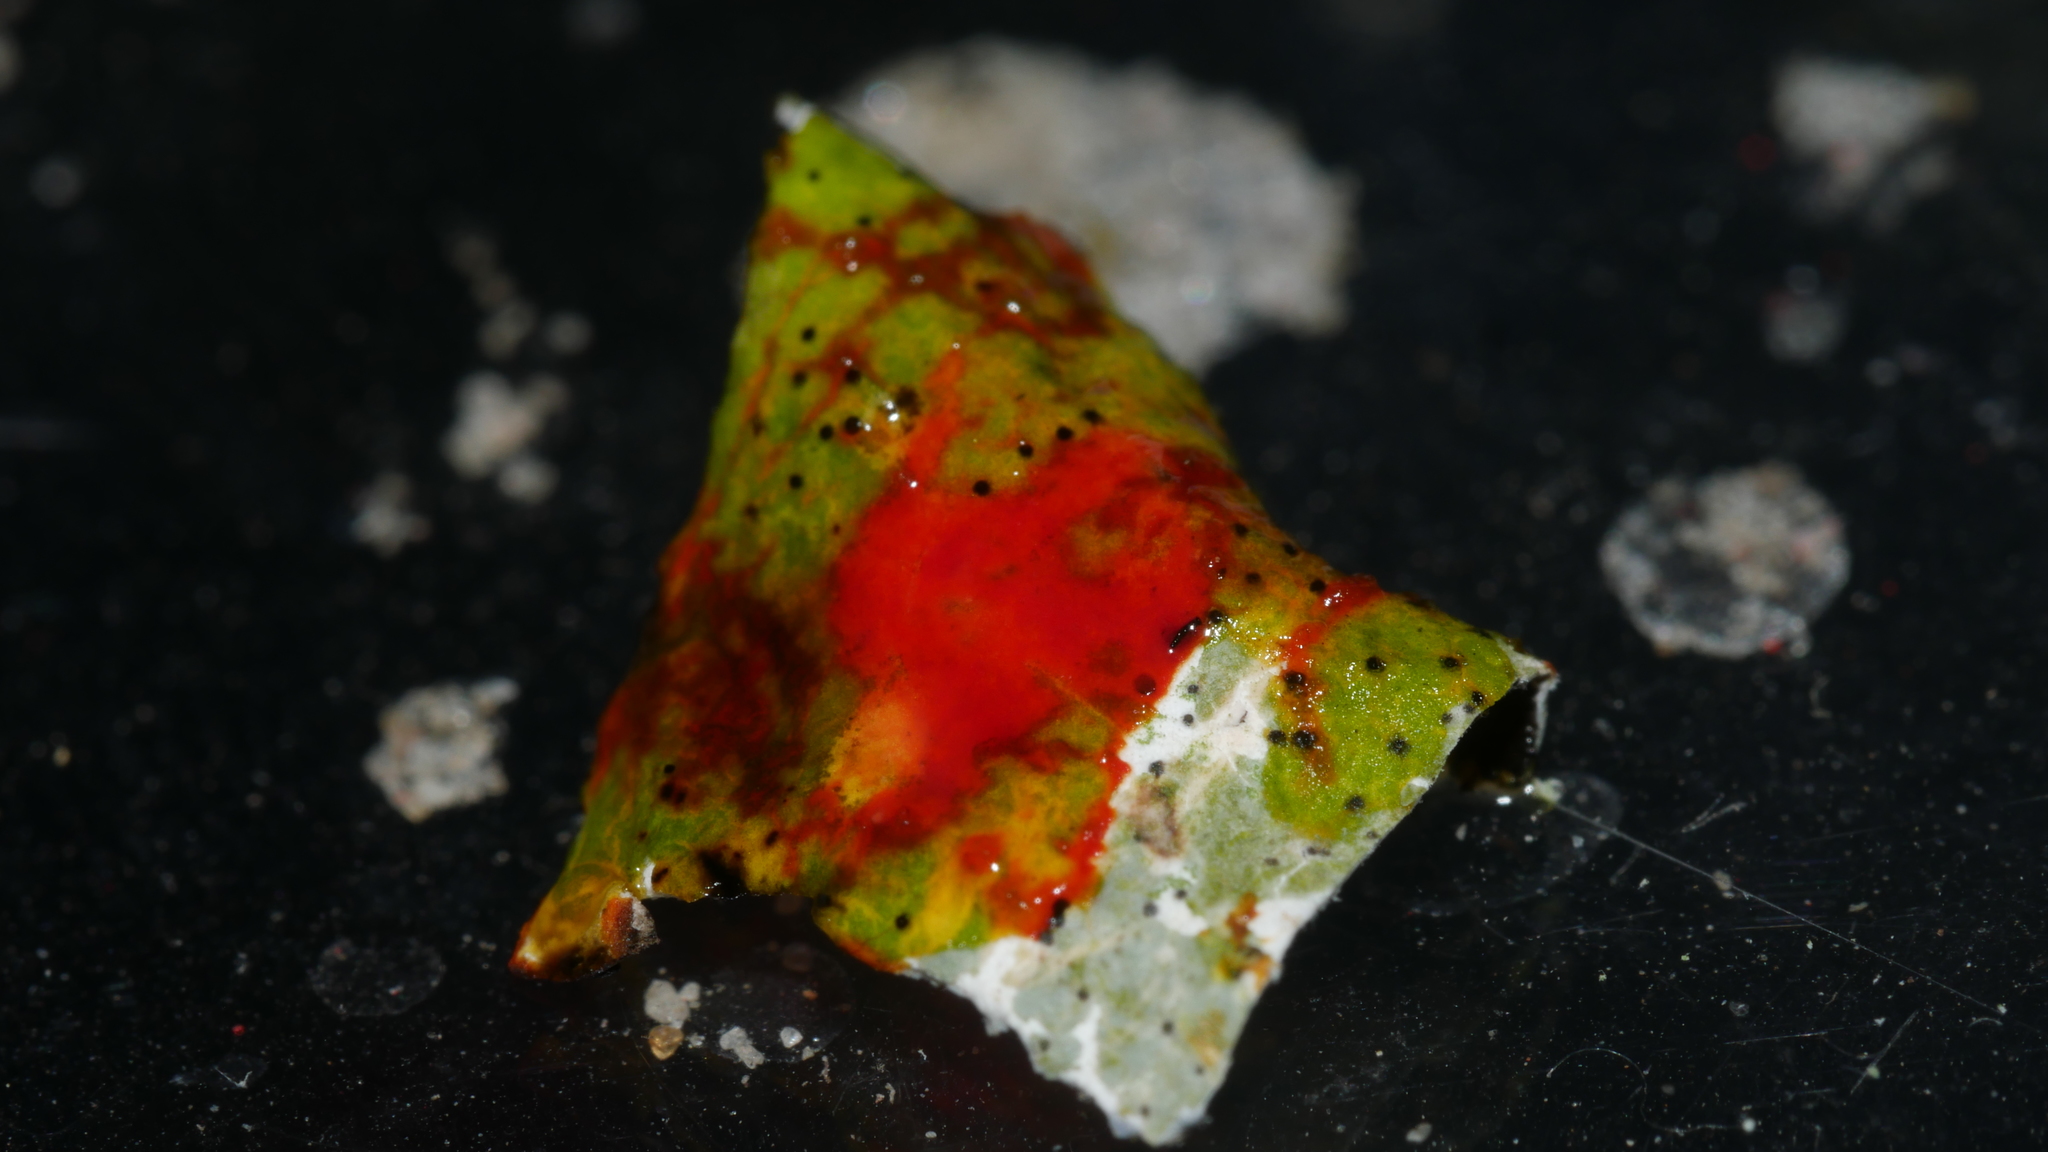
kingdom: Fungi
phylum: Ascomycota
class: Lecanoromycetes
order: Lecanorales
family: Parmeliaceae
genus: Parmotrema
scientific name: Parmotrema perforatum
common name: Perforated ruffle lichen
